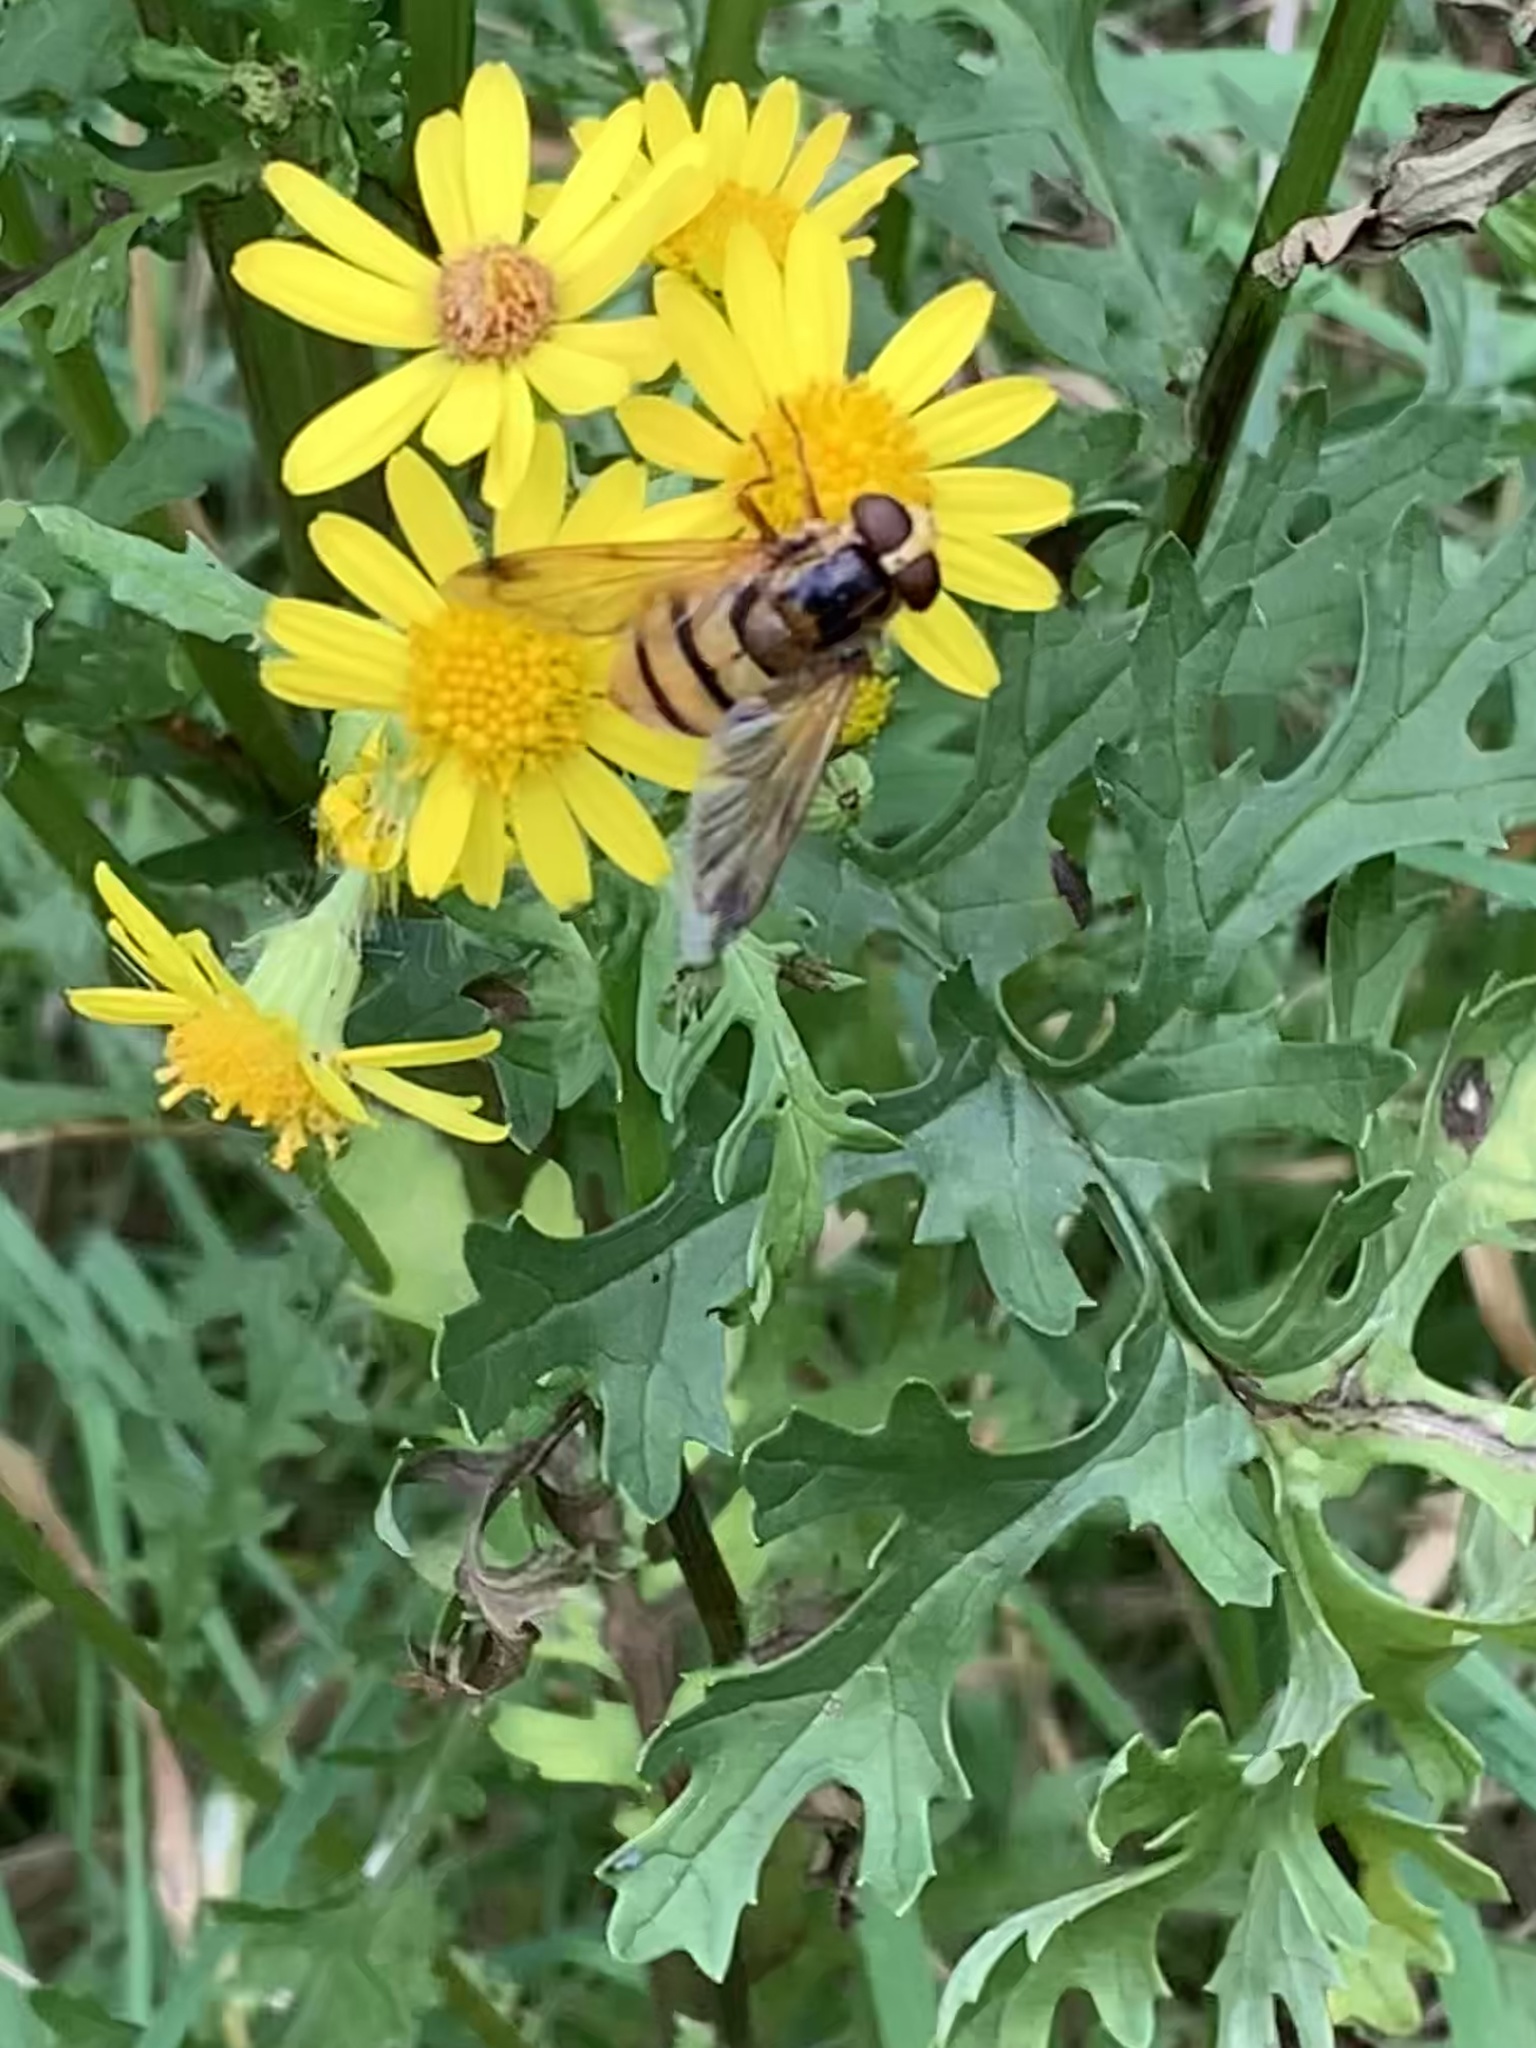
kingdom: Animalia
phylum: Arthropoda
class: Insecta
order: Diptera
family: Syrphidae
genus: Volucella
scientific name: Volucella inanis
